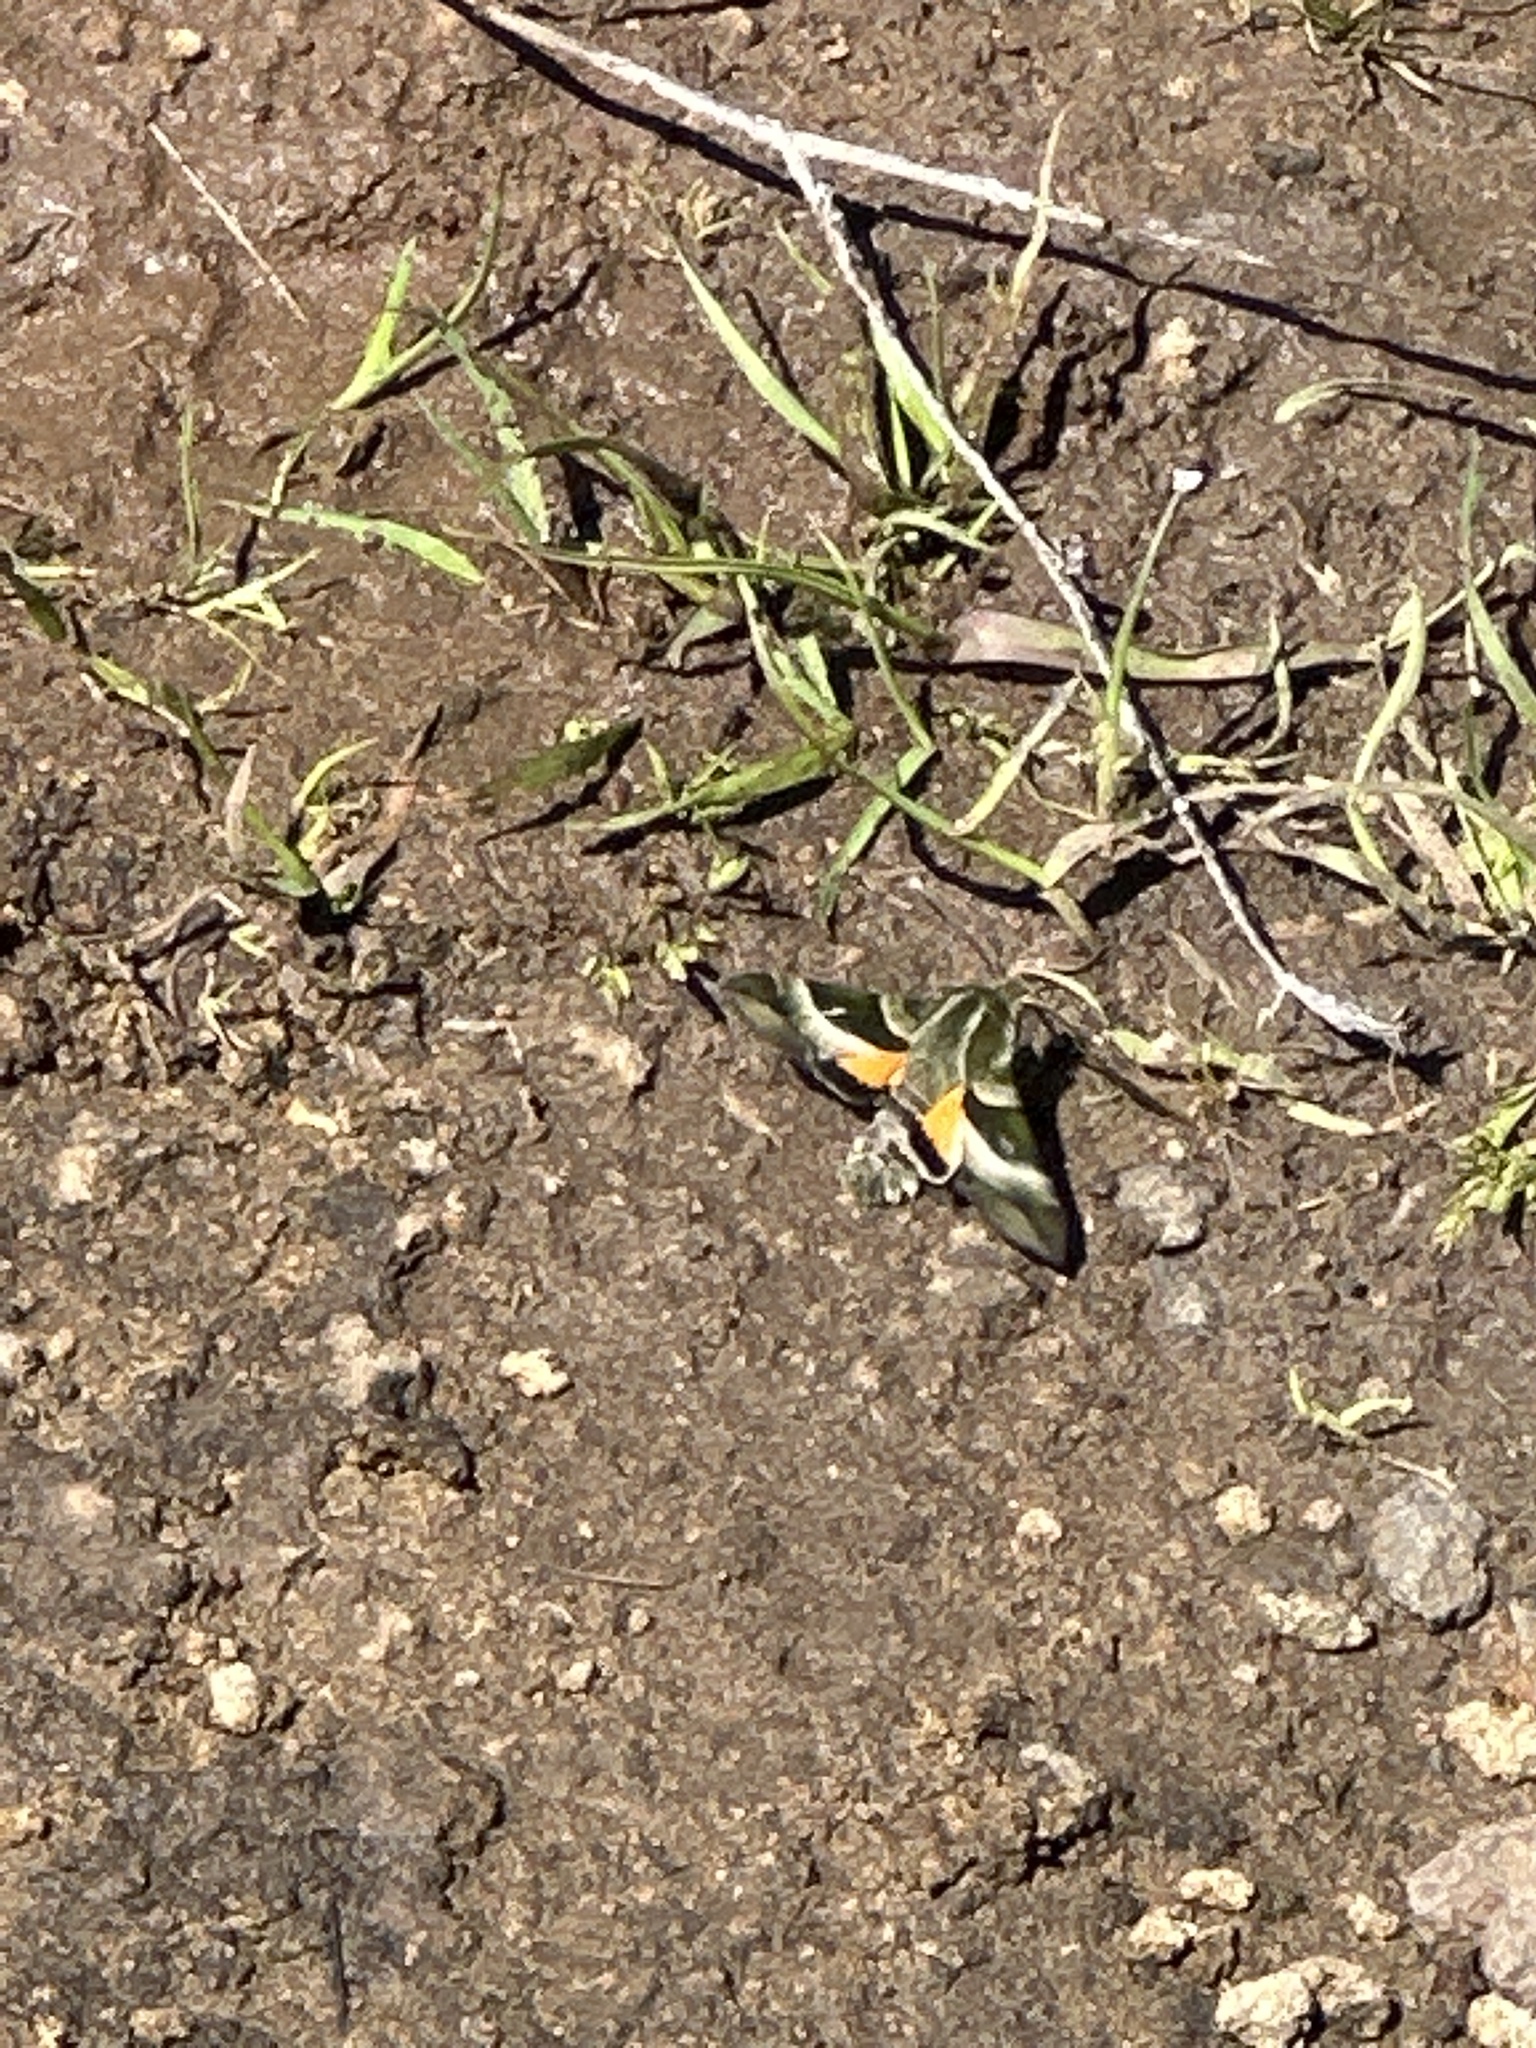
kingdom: Animalia
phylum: Arthropoda
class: Insecta
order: Lepidoptera
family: Sphingidae
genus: Proserpinus
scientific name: Proserpinus clarkiae
